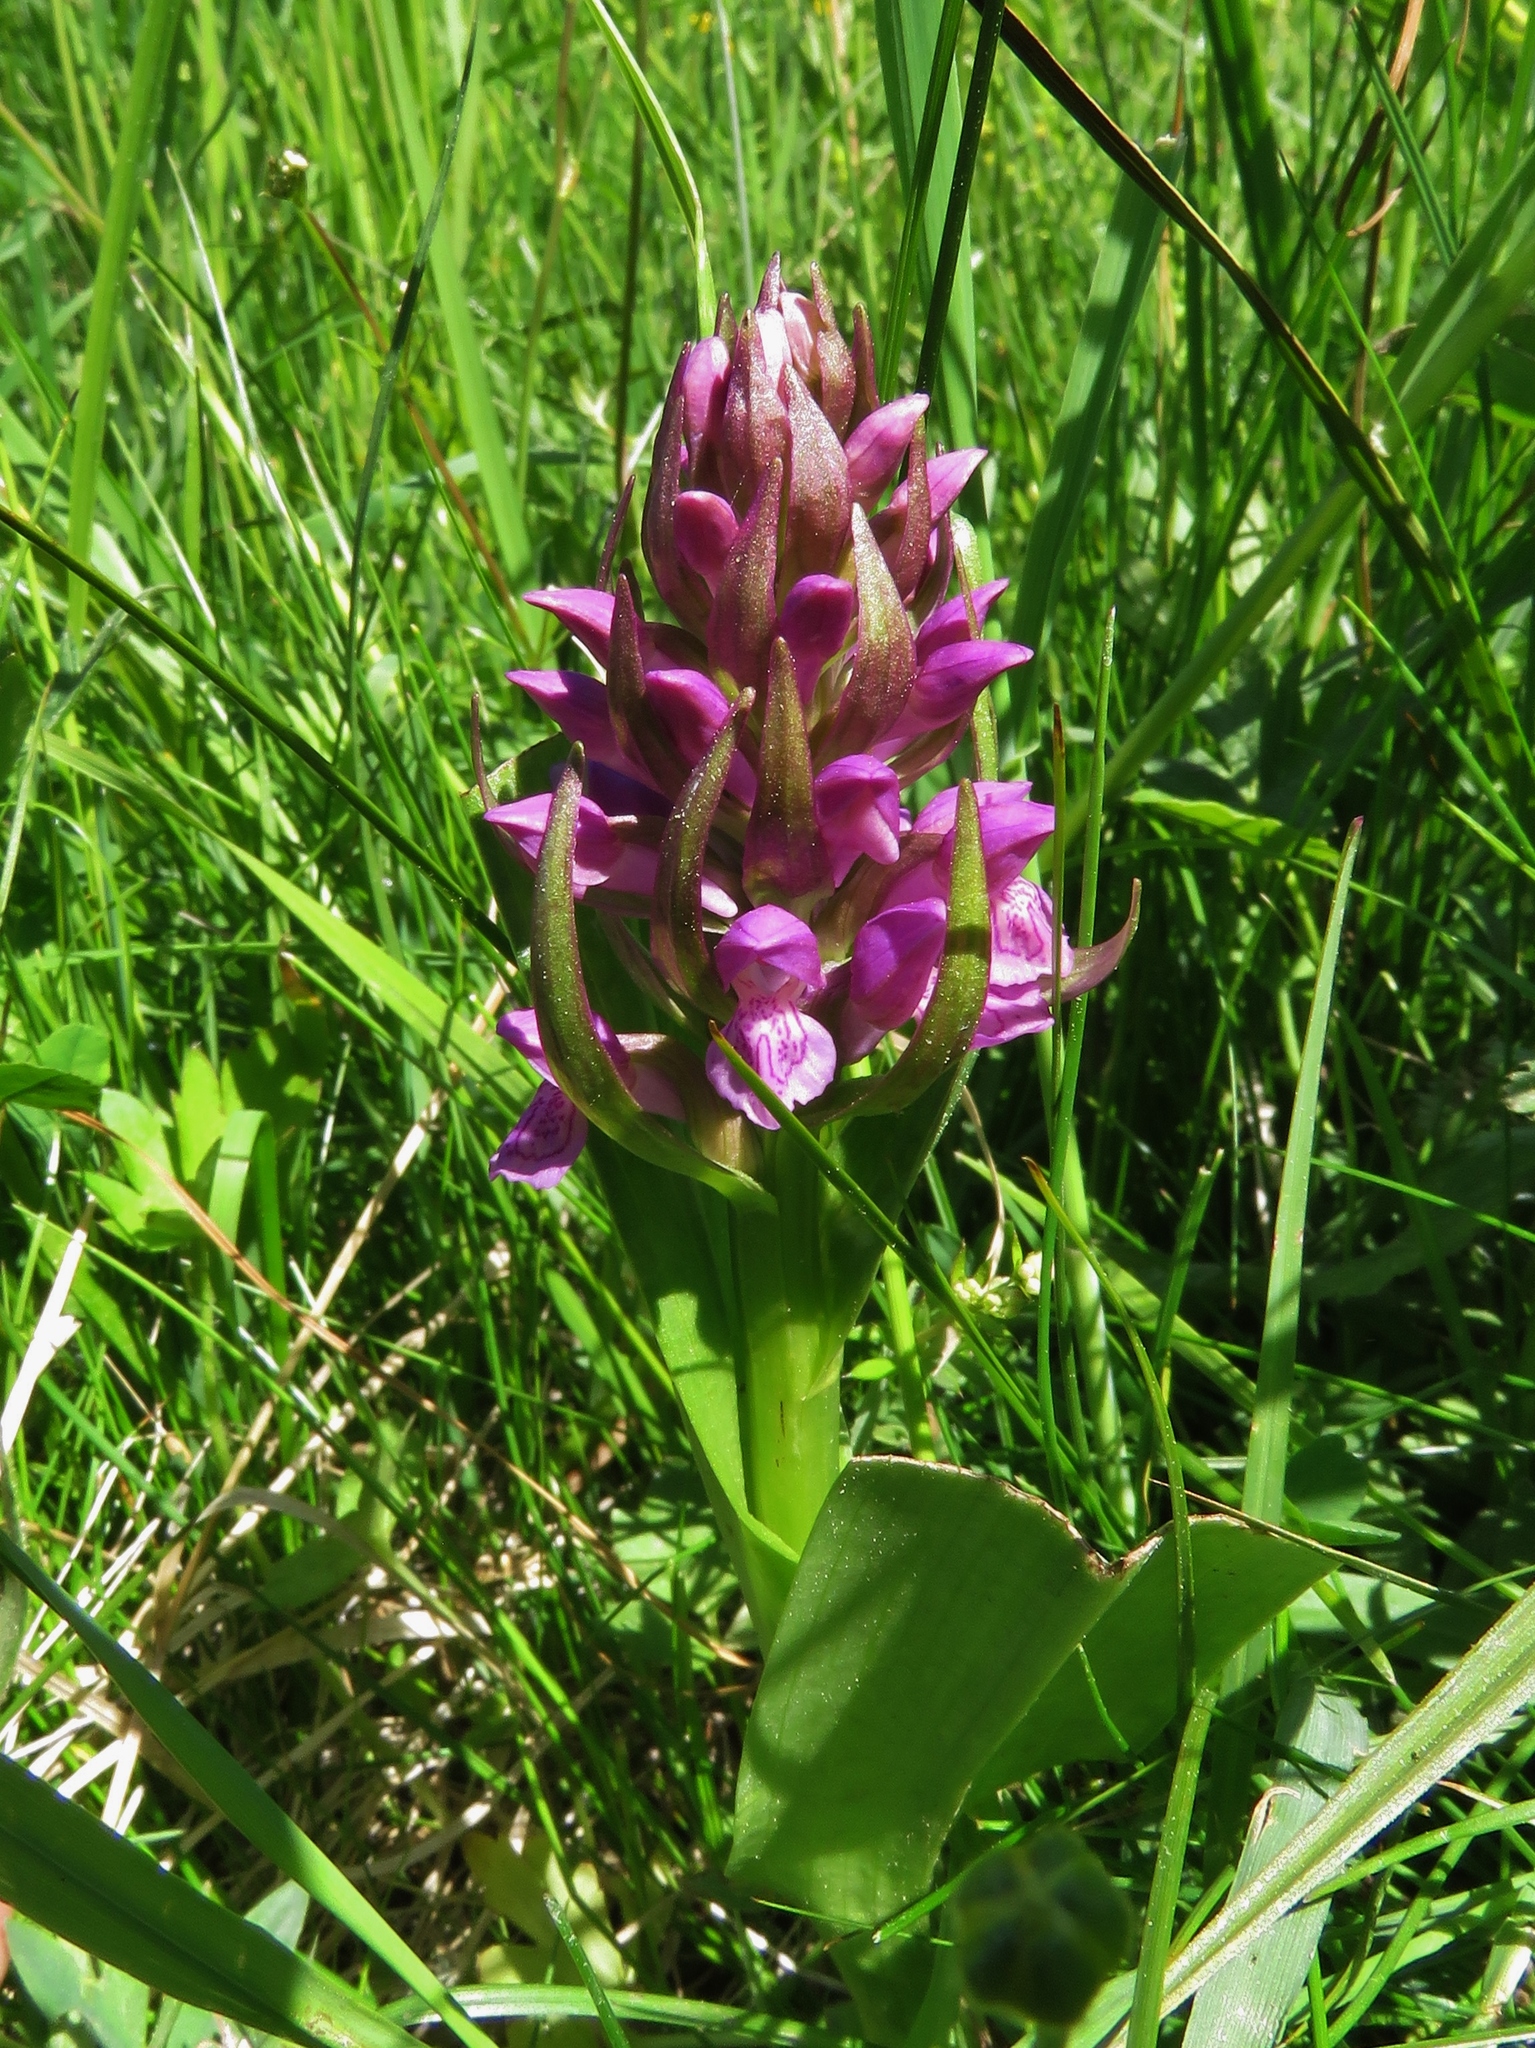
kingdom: Plantae
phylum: Tracheophyta
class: Liliopsida
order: Asparagales
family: Orchidaceae
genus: Dactylorhiza
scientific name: Dactylorhiza sambucina
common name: Elder-flowered orchid
